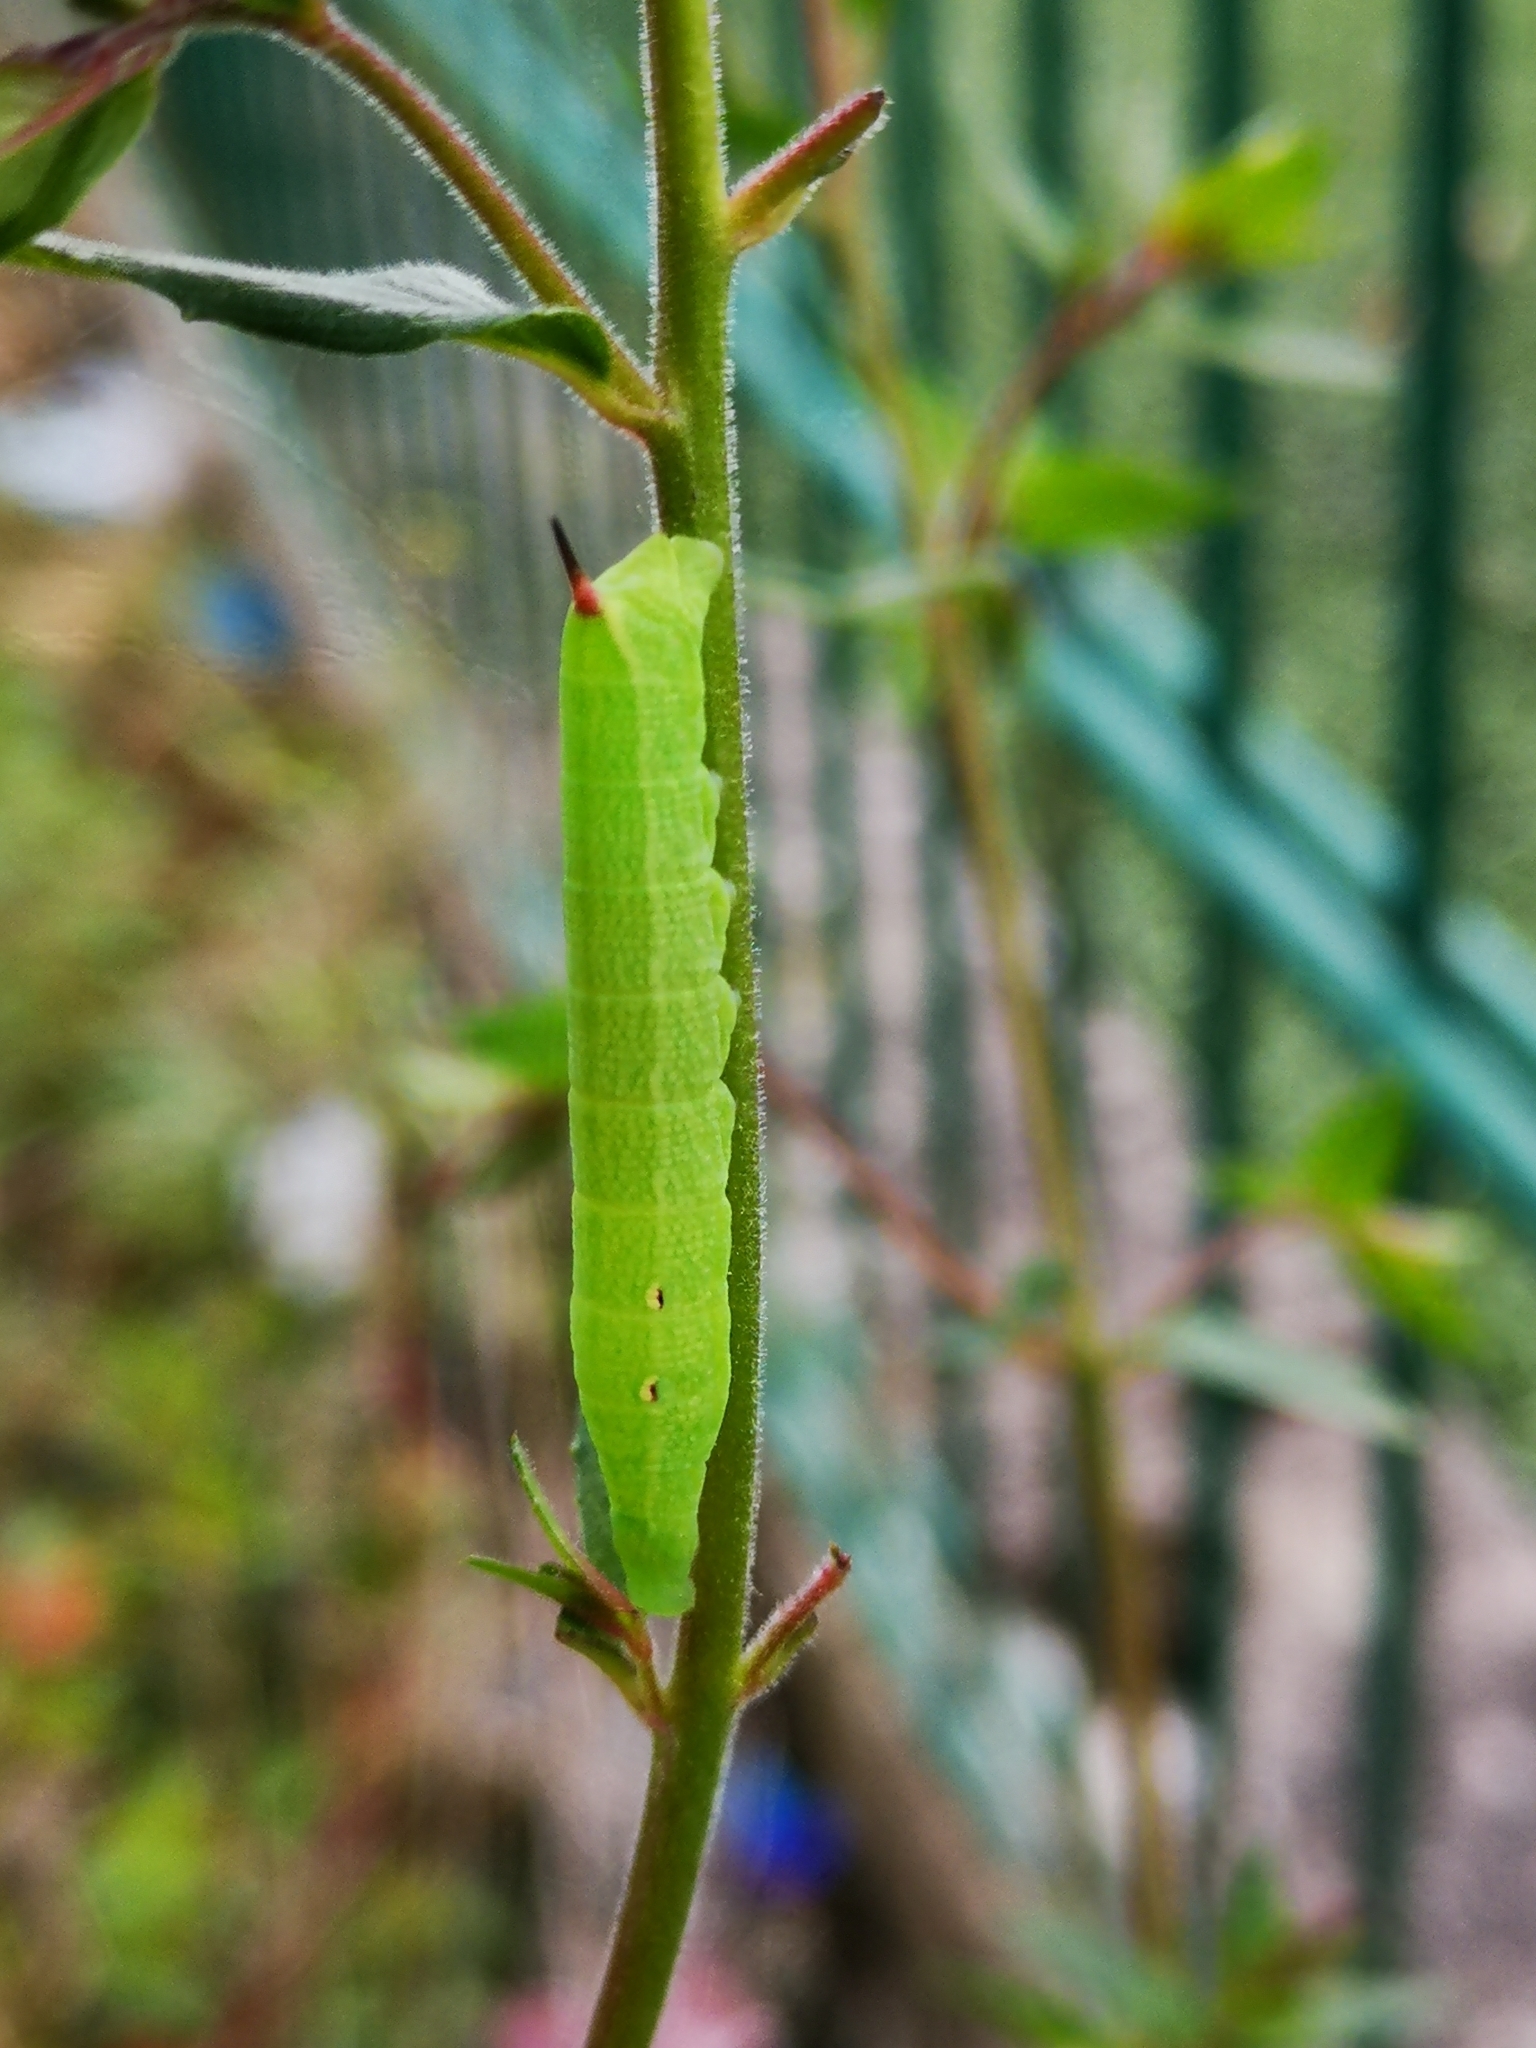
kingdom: Animalia
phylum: Arthropoda
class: Insecta
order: Lepidoptera
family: Sphingidae
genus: Deilephila
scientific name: Deilephila elpenor
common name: Elephant hawk-moth
